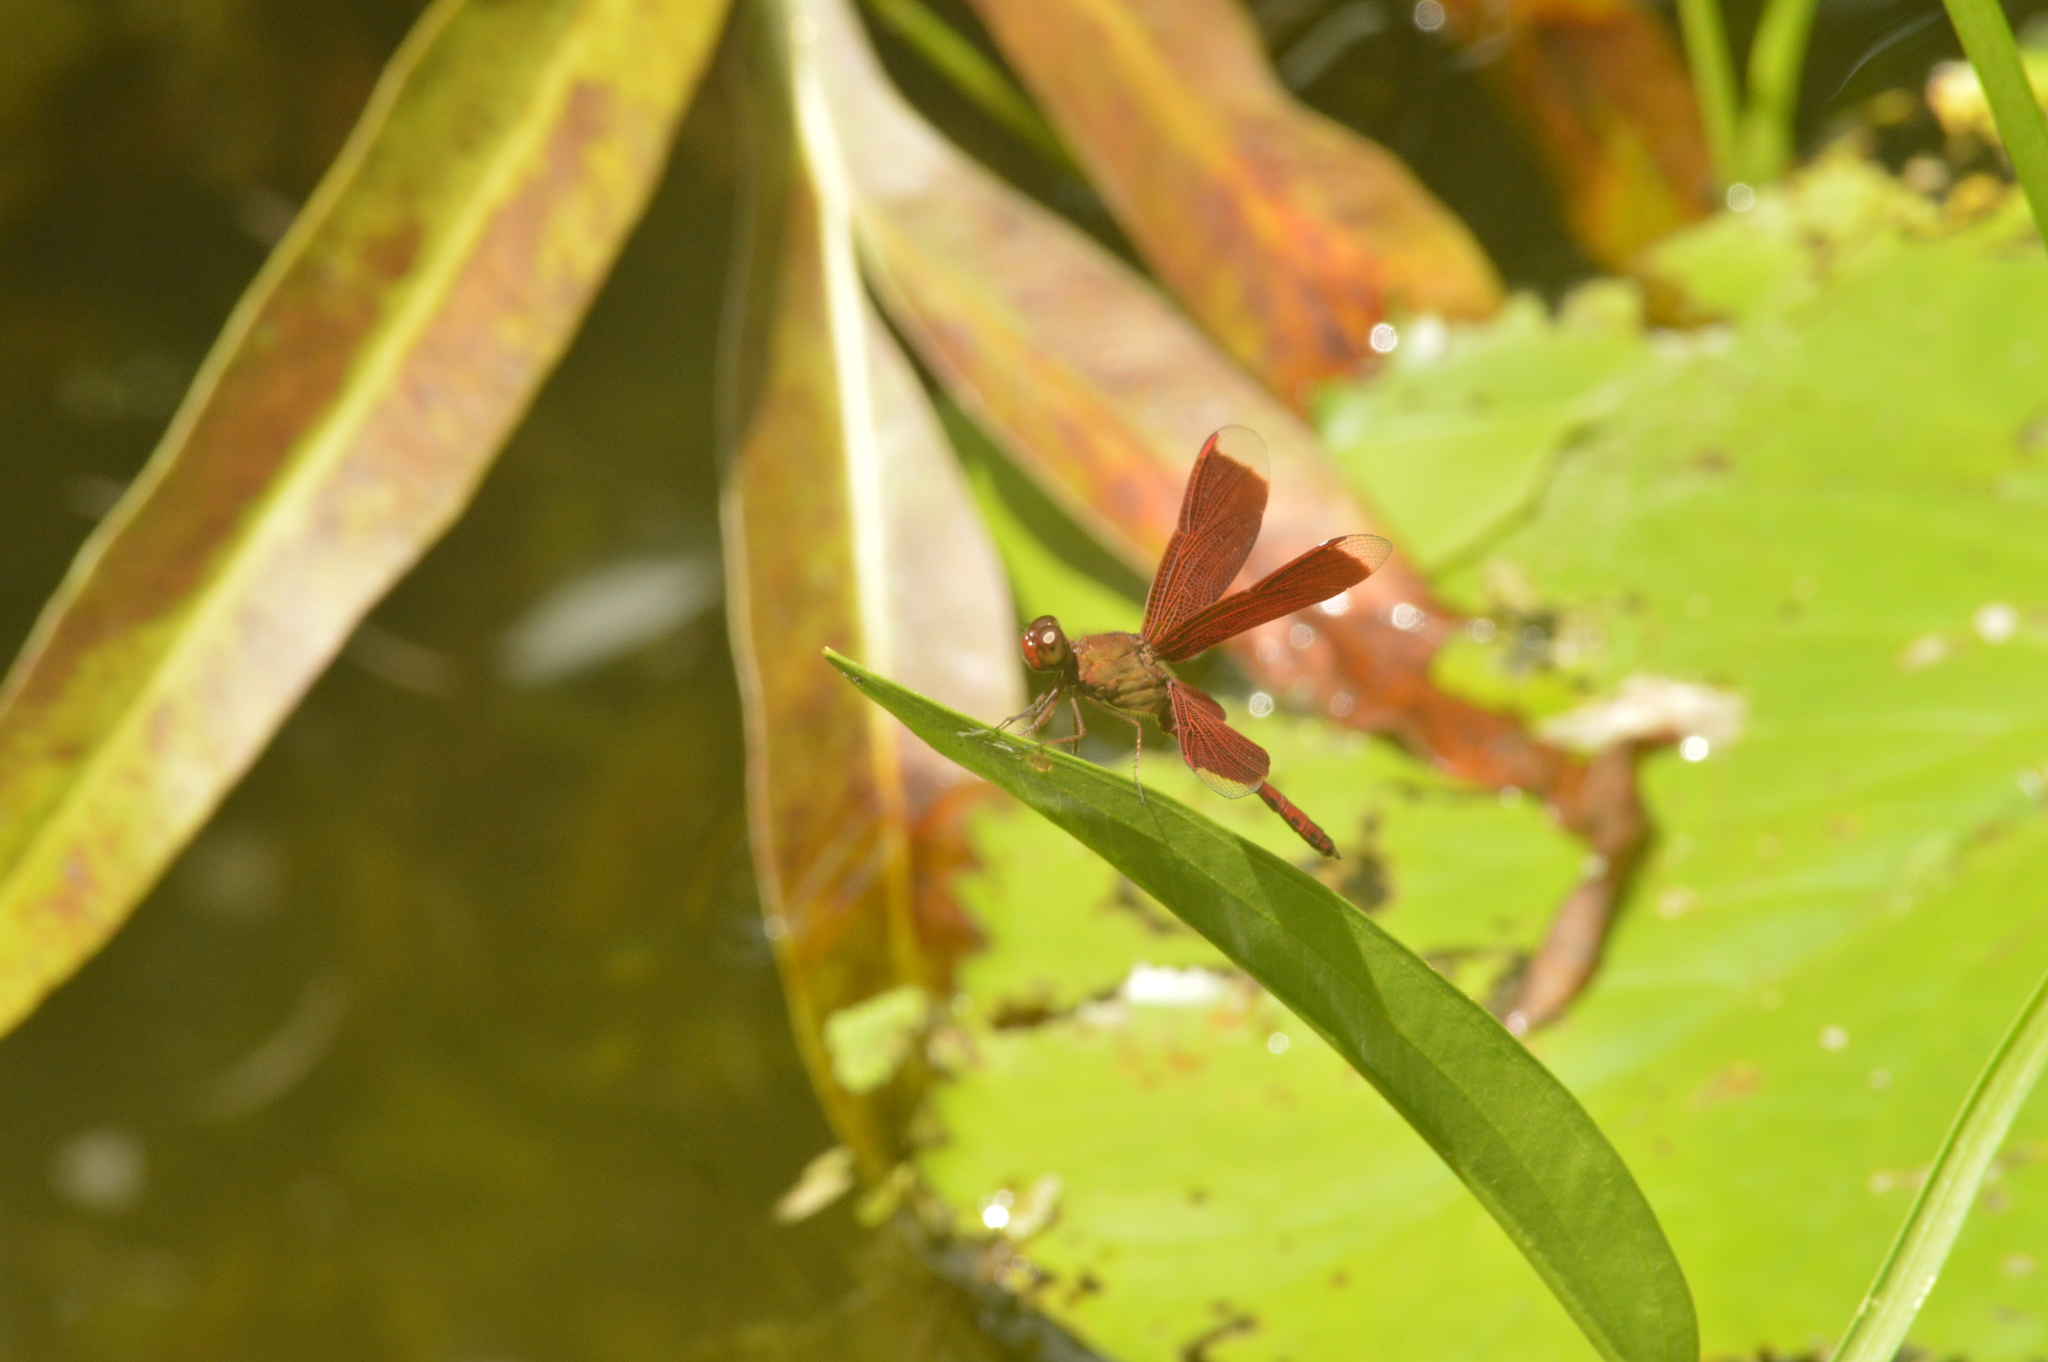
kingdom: Animalia
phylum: Arthropoda
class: Insecta
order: Odonata
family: Libellulidae
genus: Neurothemis
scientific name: Neurothemis fluctuans
